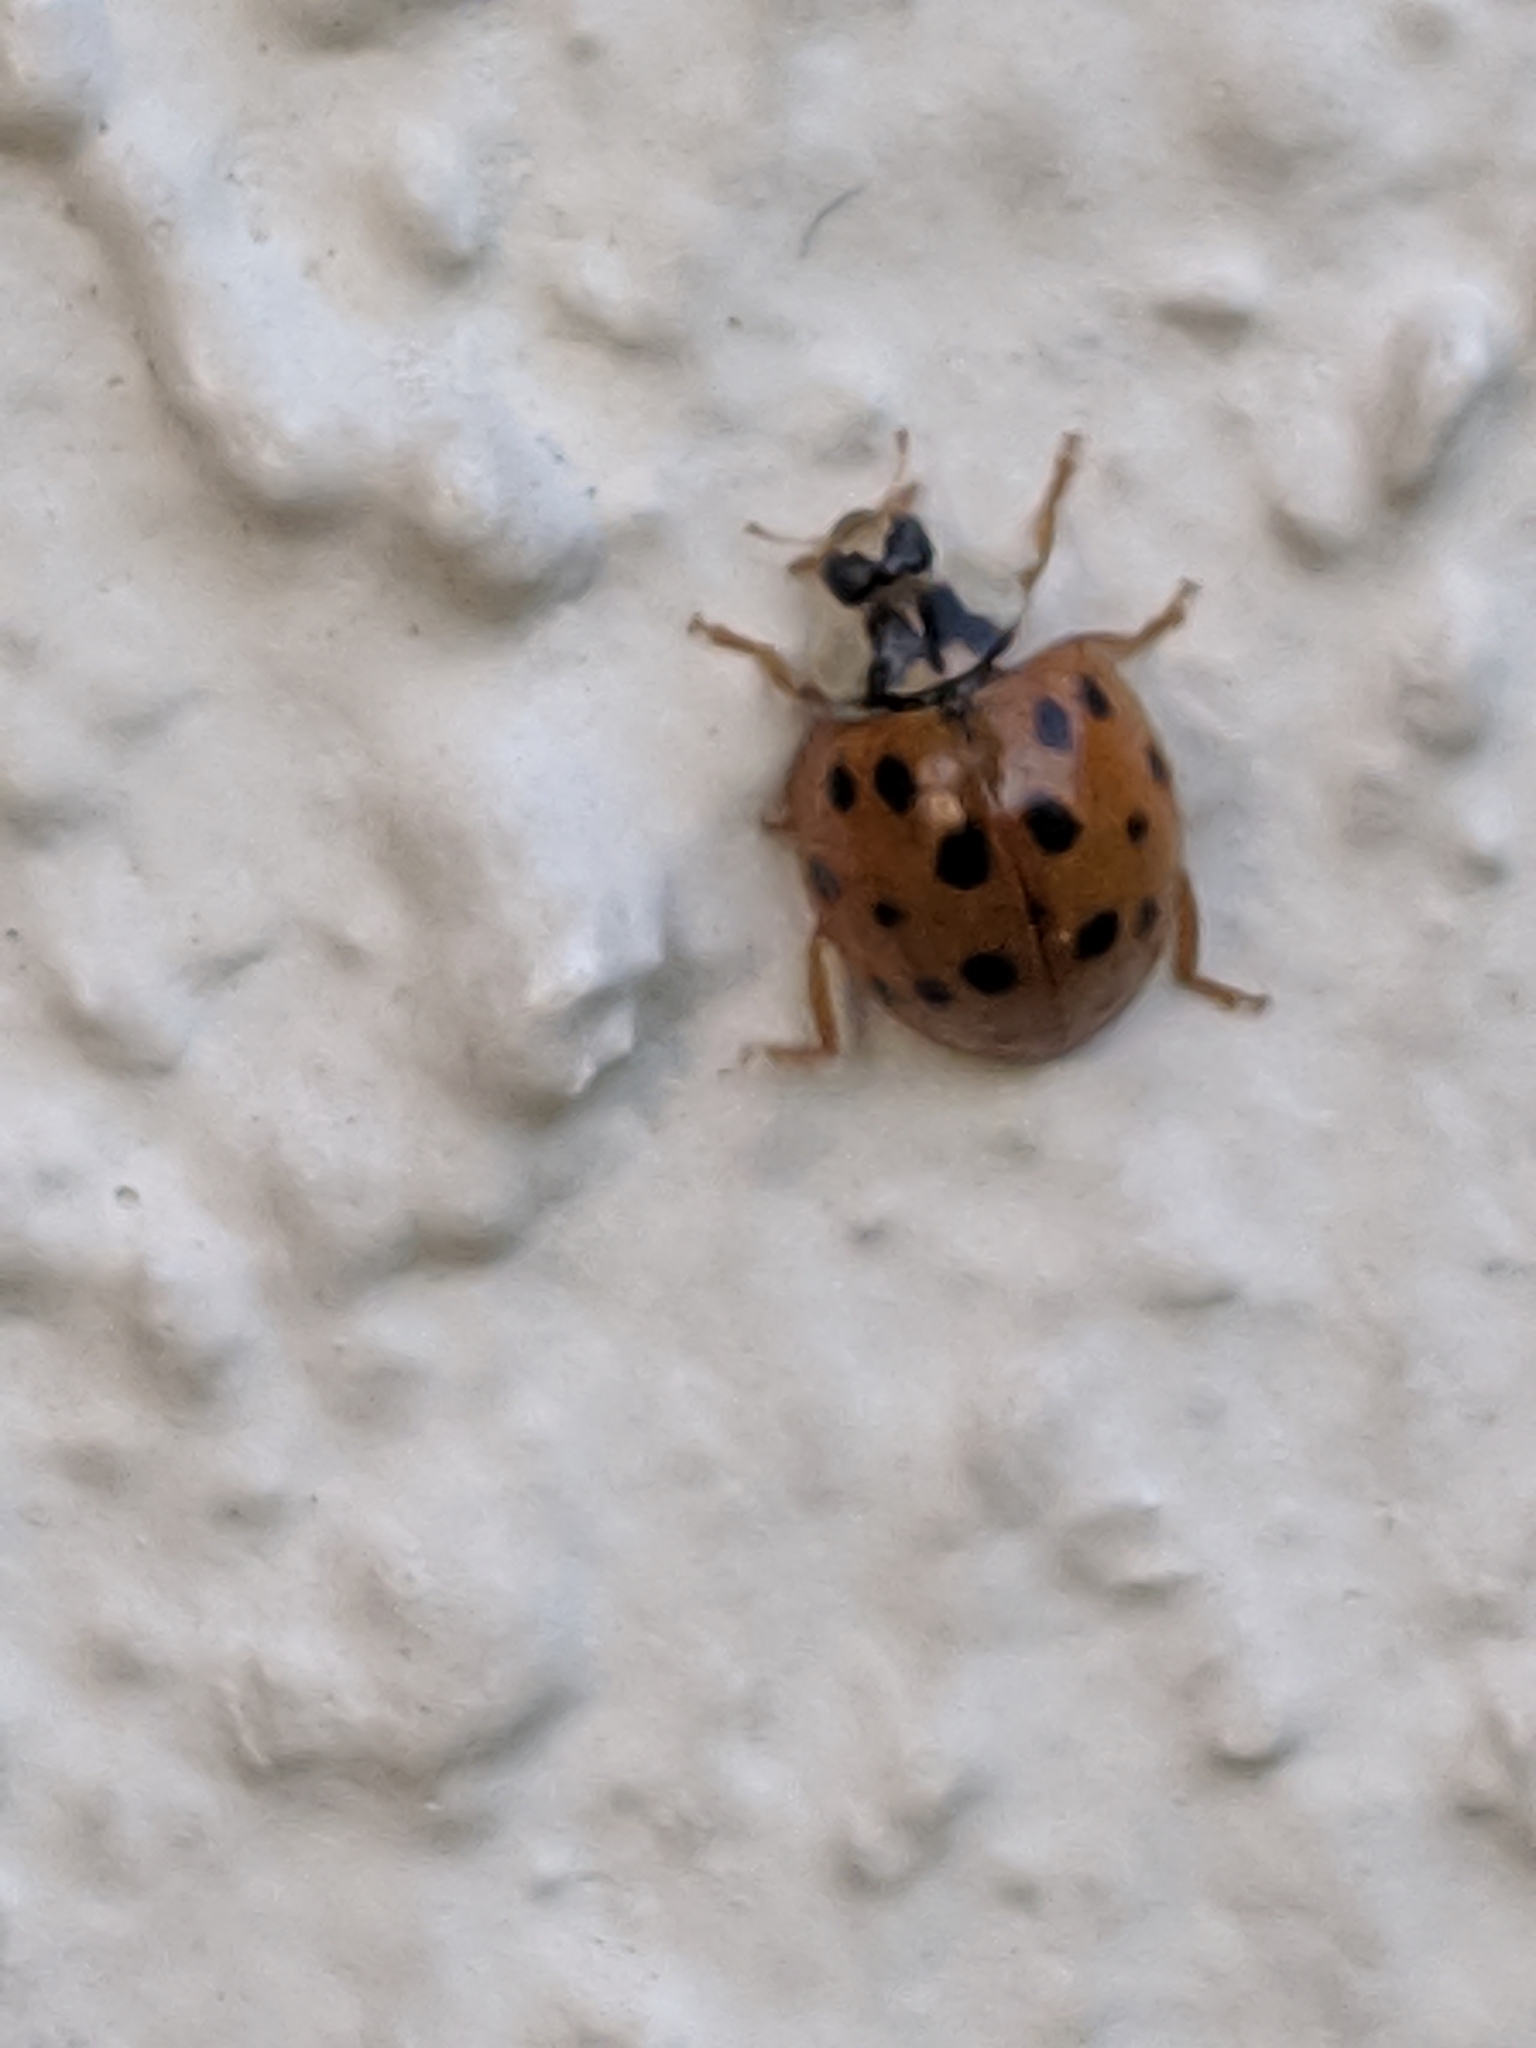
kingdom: Animalia
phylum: Arthropoda
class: Insecta
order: Coleoptera
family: Coccinellidae
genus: Harmonia
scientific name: Harmonia axyridis
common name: Harlequin ladybird
